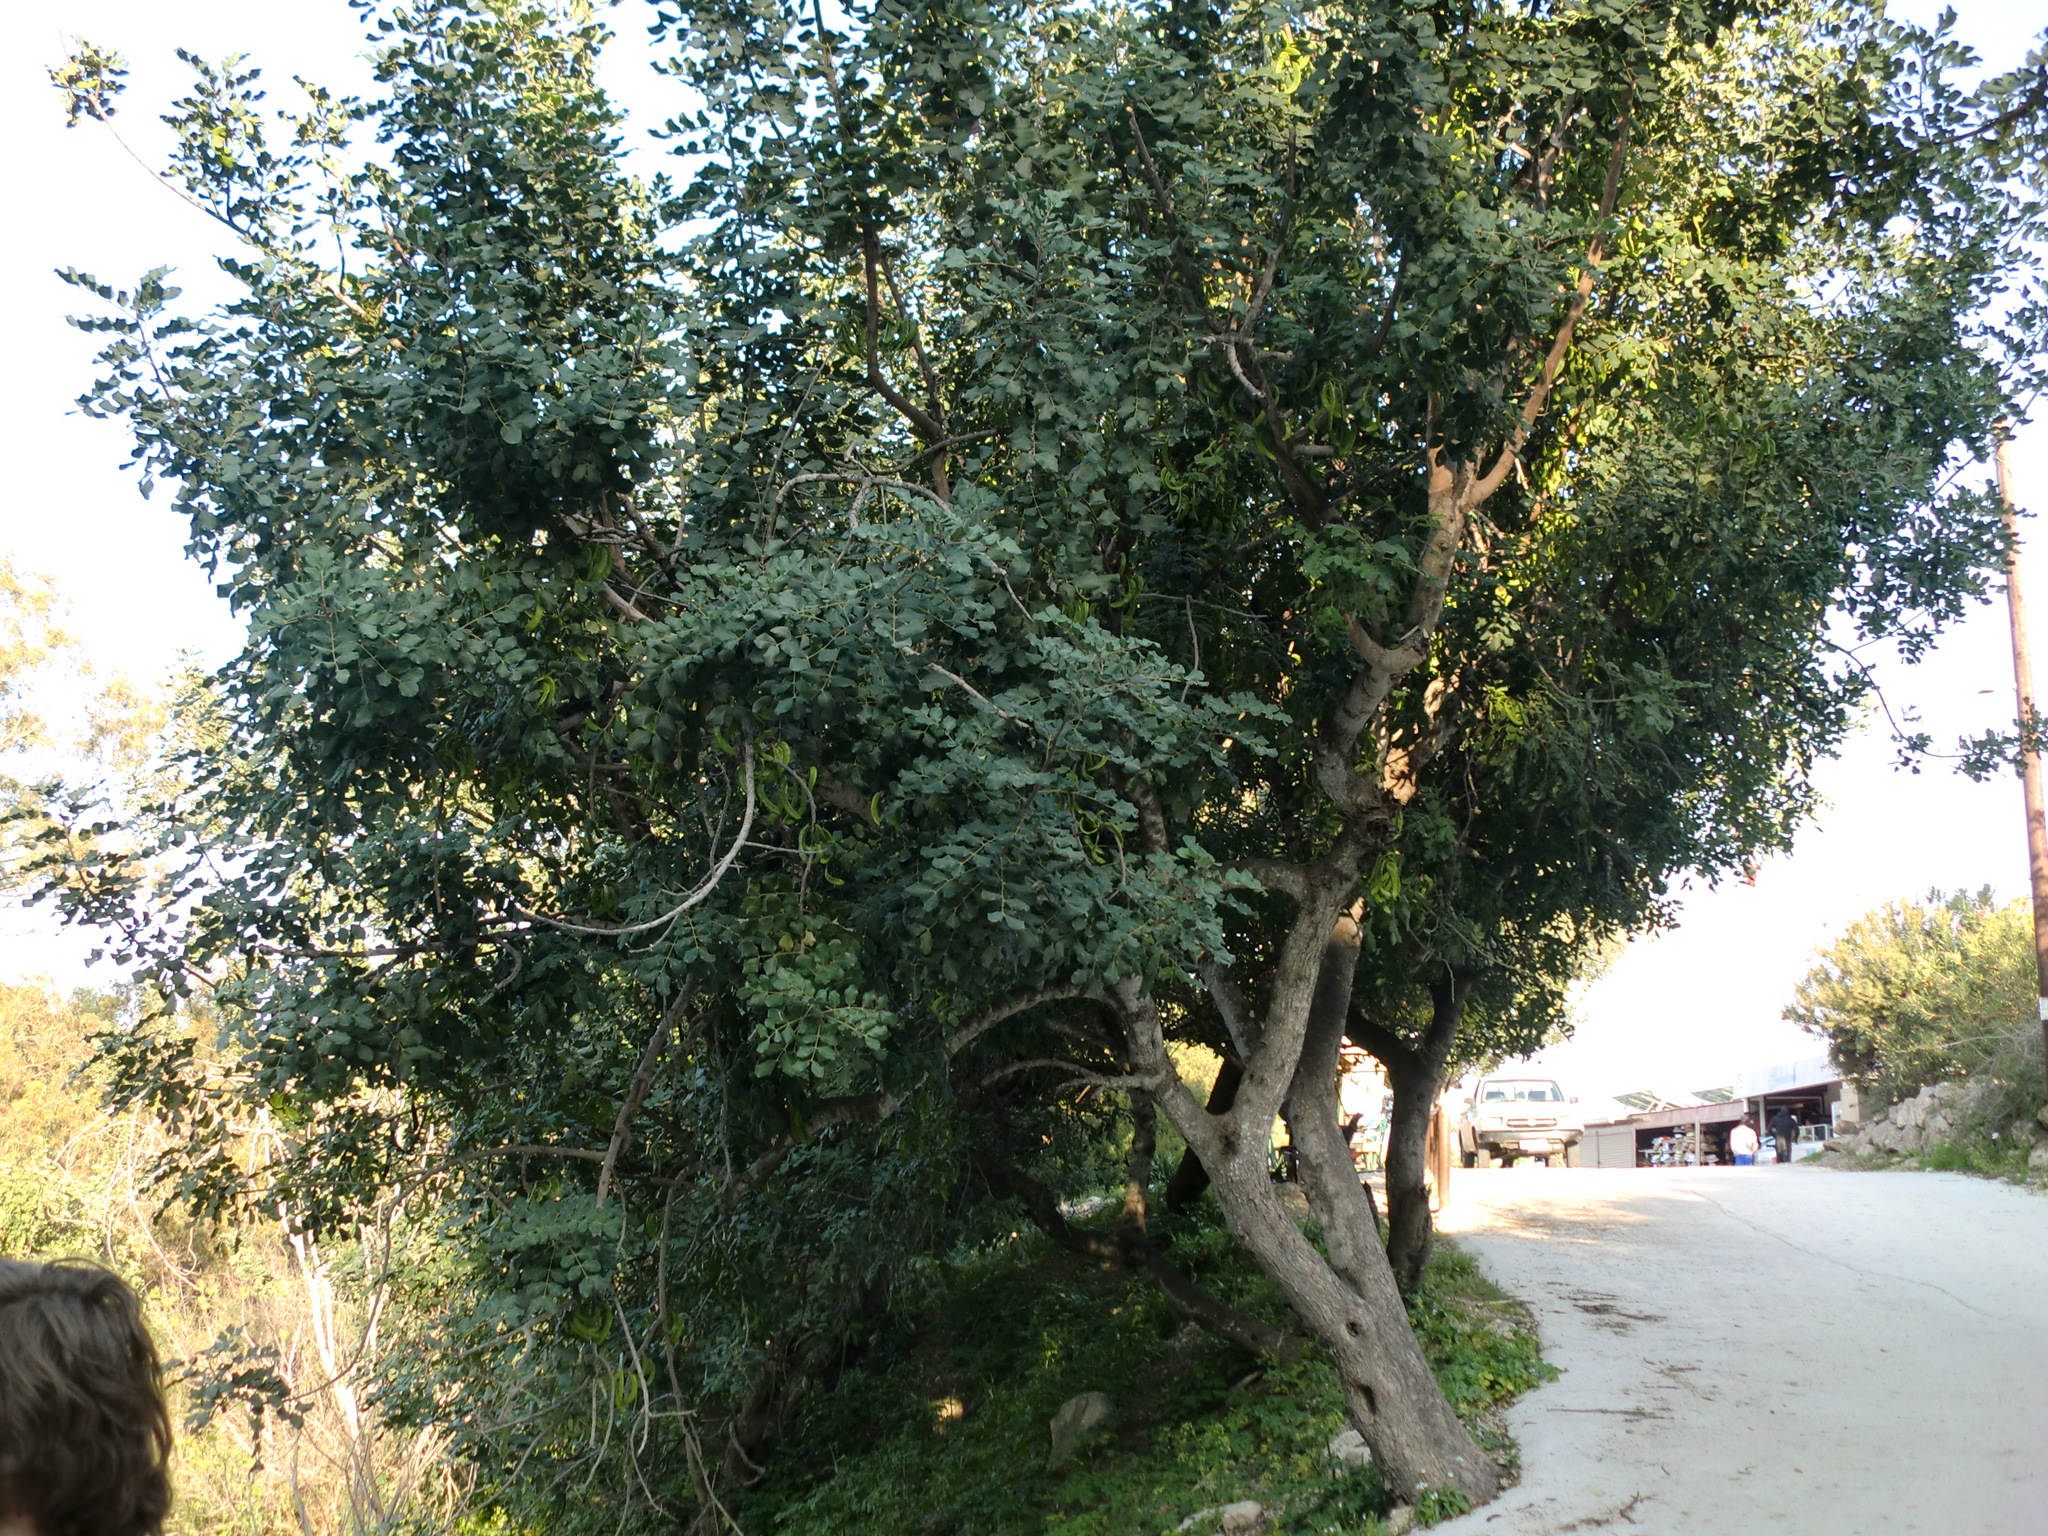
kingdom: Plantae
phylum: Tracheophyta
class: Magnoliopsida
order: Fabales
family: Fabaceae
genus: Ceratonia
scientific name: Ceratonia siliqua
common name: Carob
